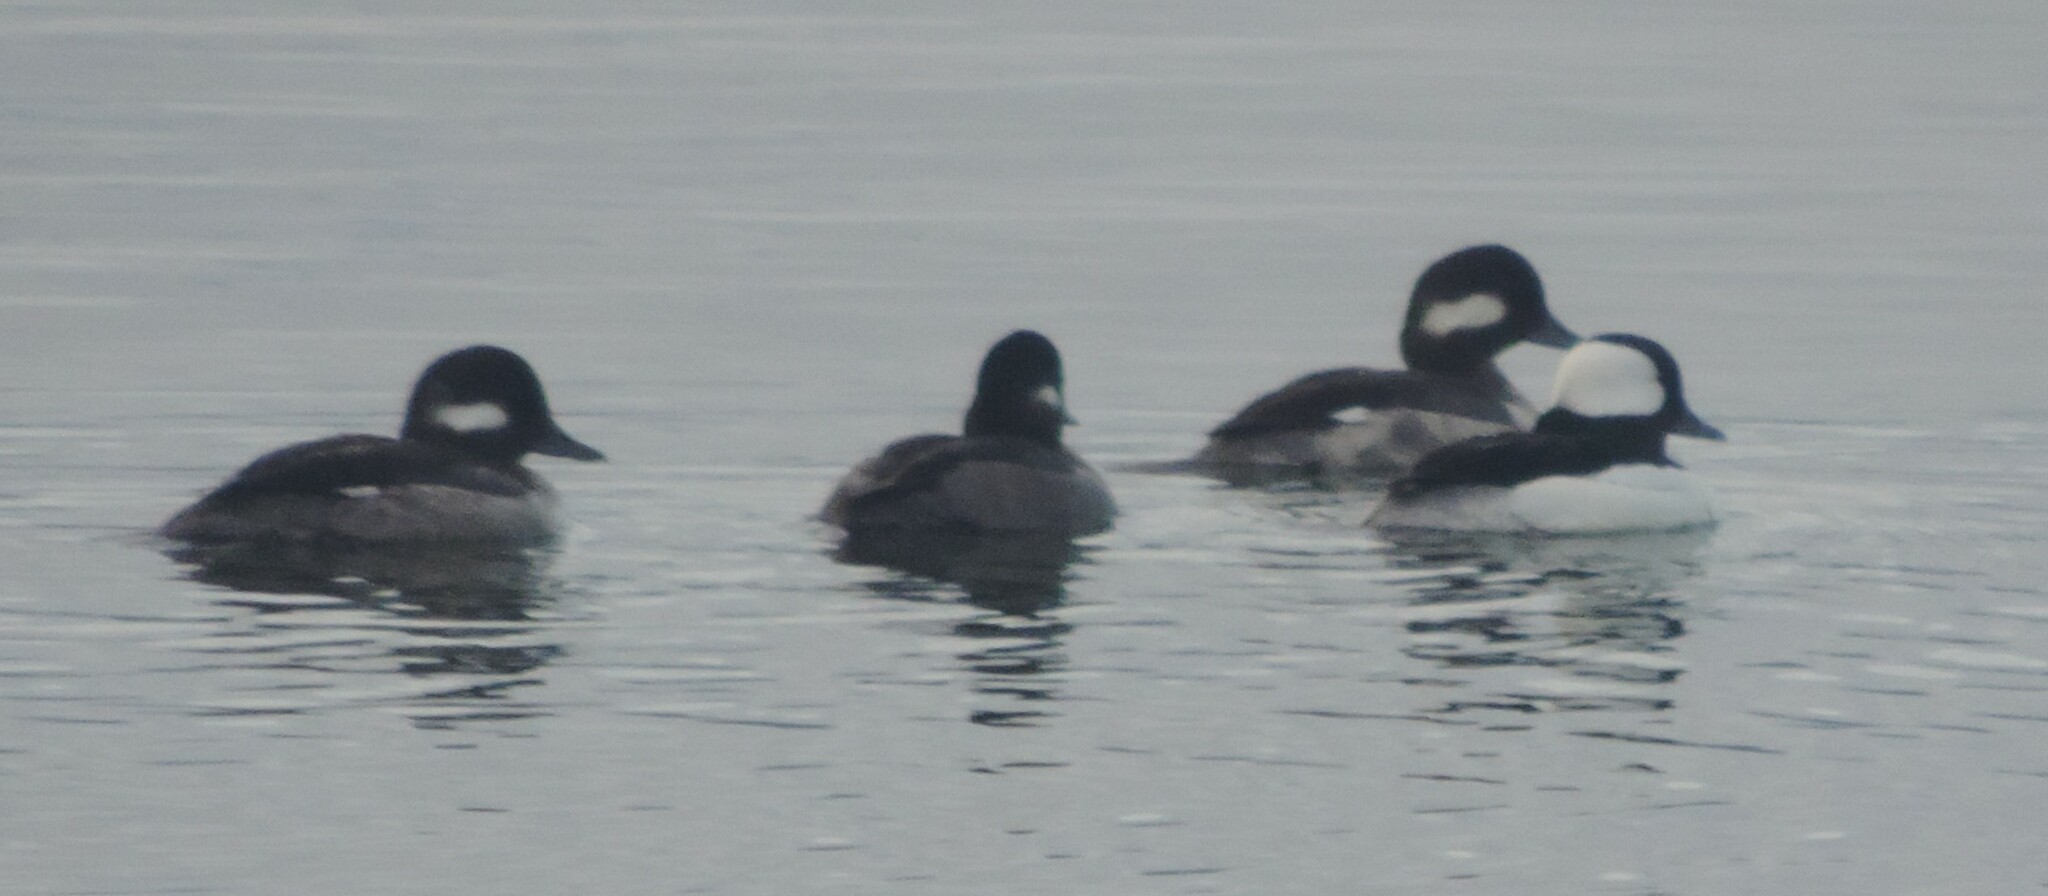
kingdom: Animalia
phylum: Chordata
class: Aves
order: Anseriformes
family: Anatidae
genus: Bucephala
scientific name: Bucephala albeola
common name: Bufflehead
